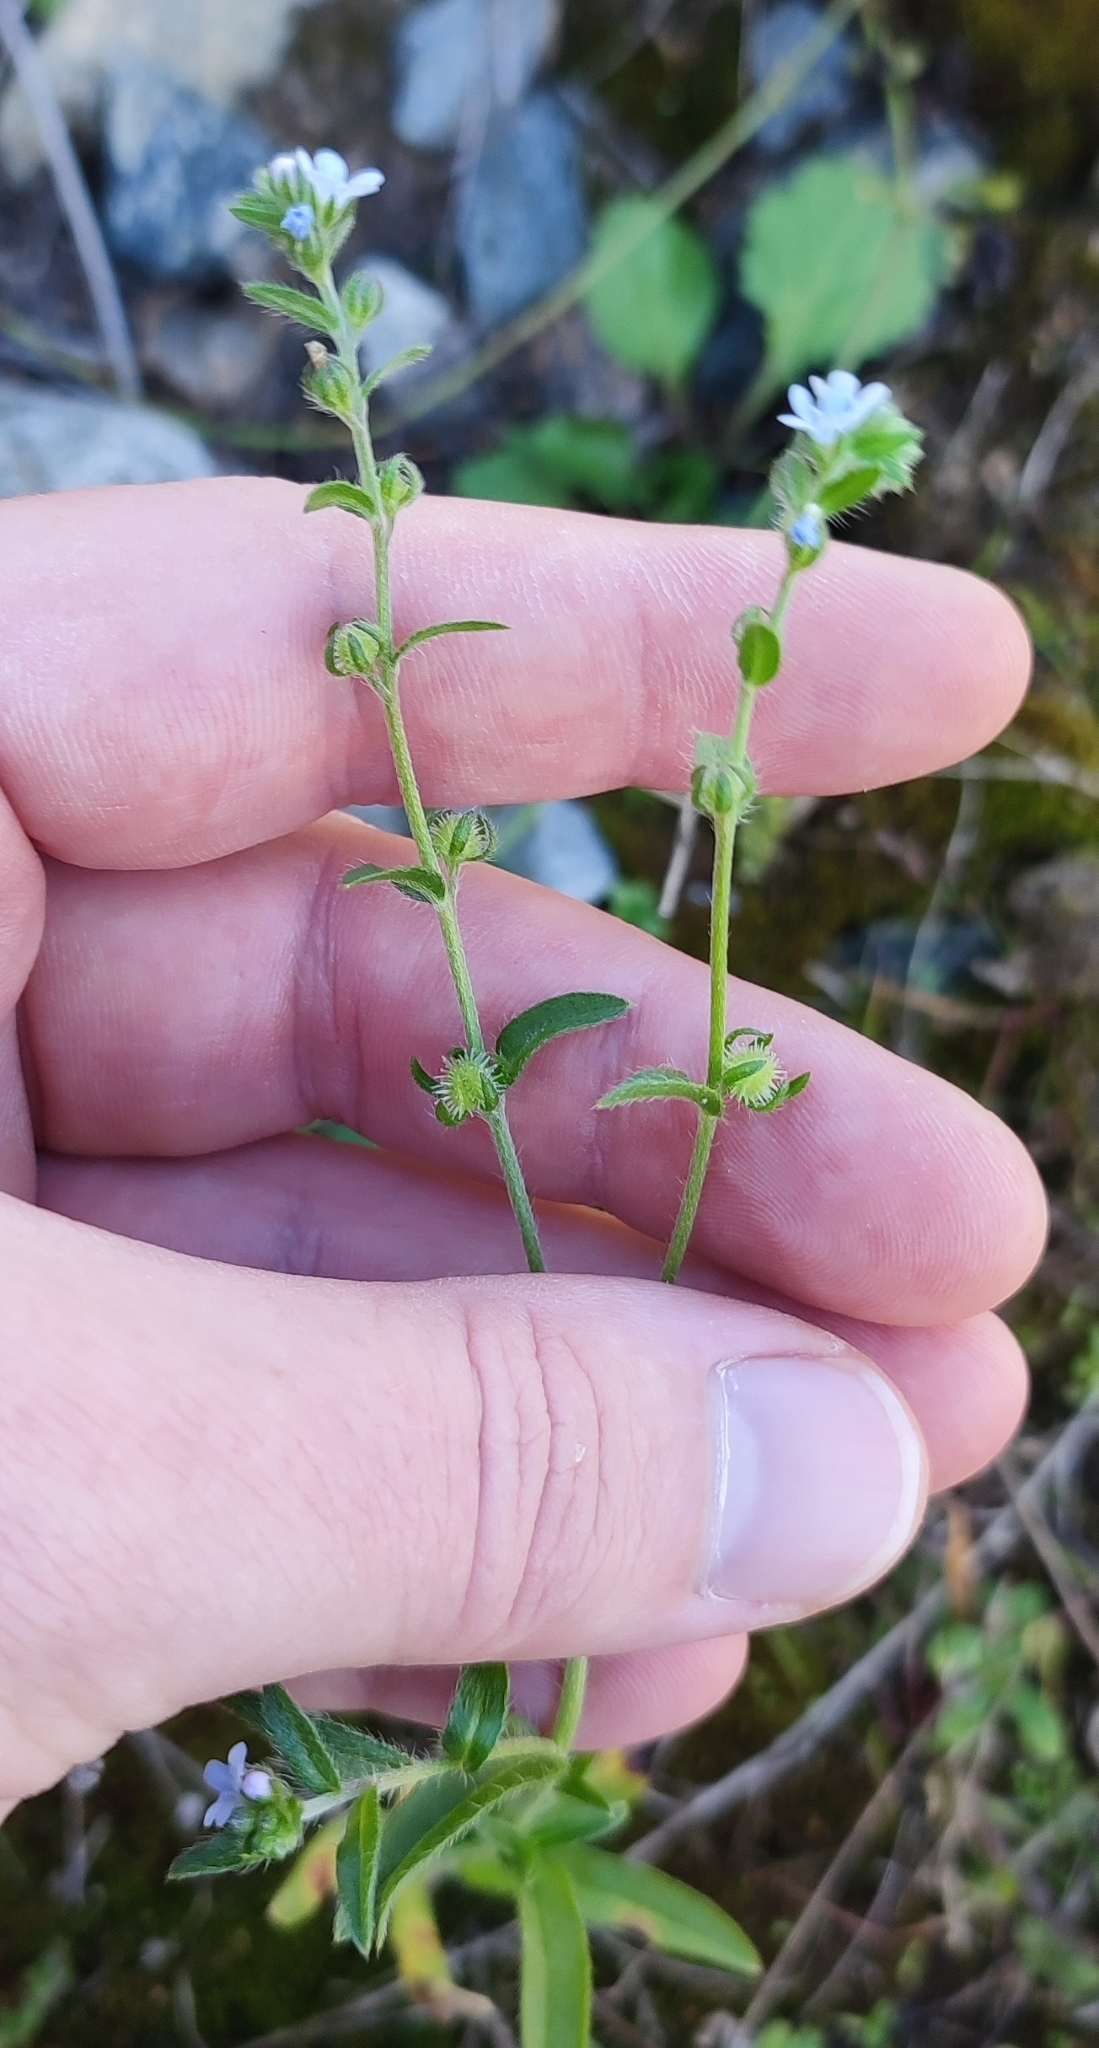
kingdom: Plantae
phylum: Tracheophyta
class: Magnoliopsida
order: Boraginales
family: Boraginaceae
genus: Lappula
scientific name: Lappula squarrosa
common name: European stickseed
